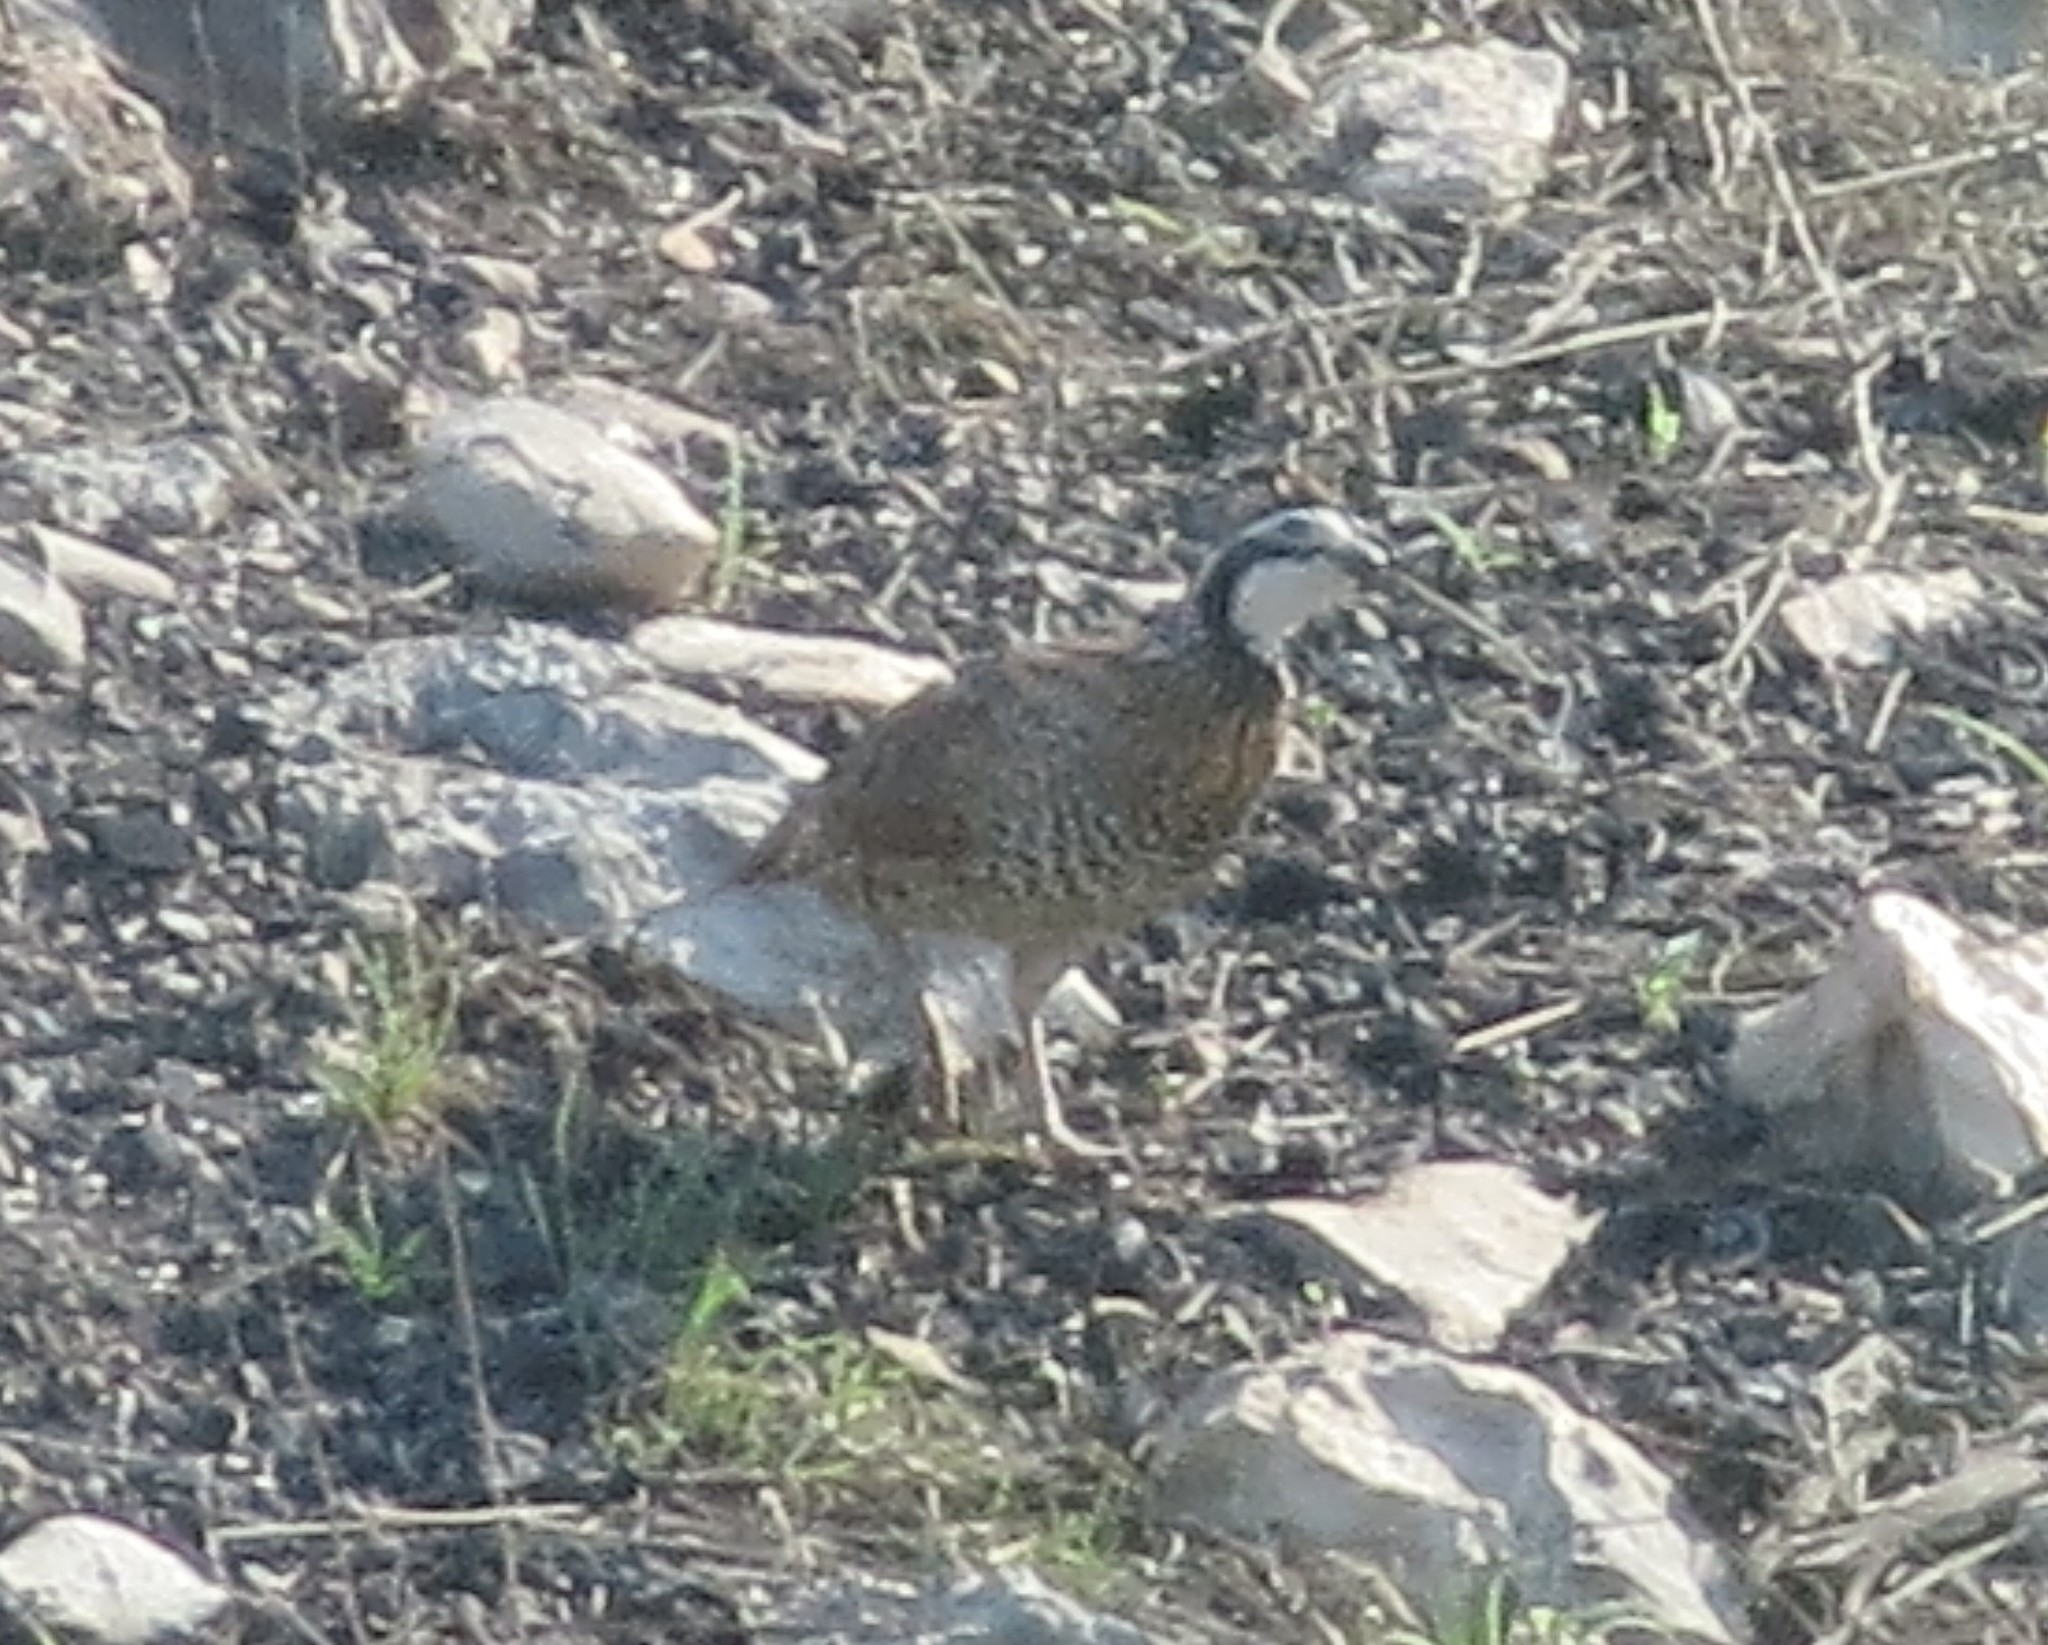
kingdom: Animalia
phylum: Chordata
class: Aves
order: Galliformes
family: Odontophoridae
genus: Colinus
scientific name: Colinus virginianus
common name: Northern bobwhite
